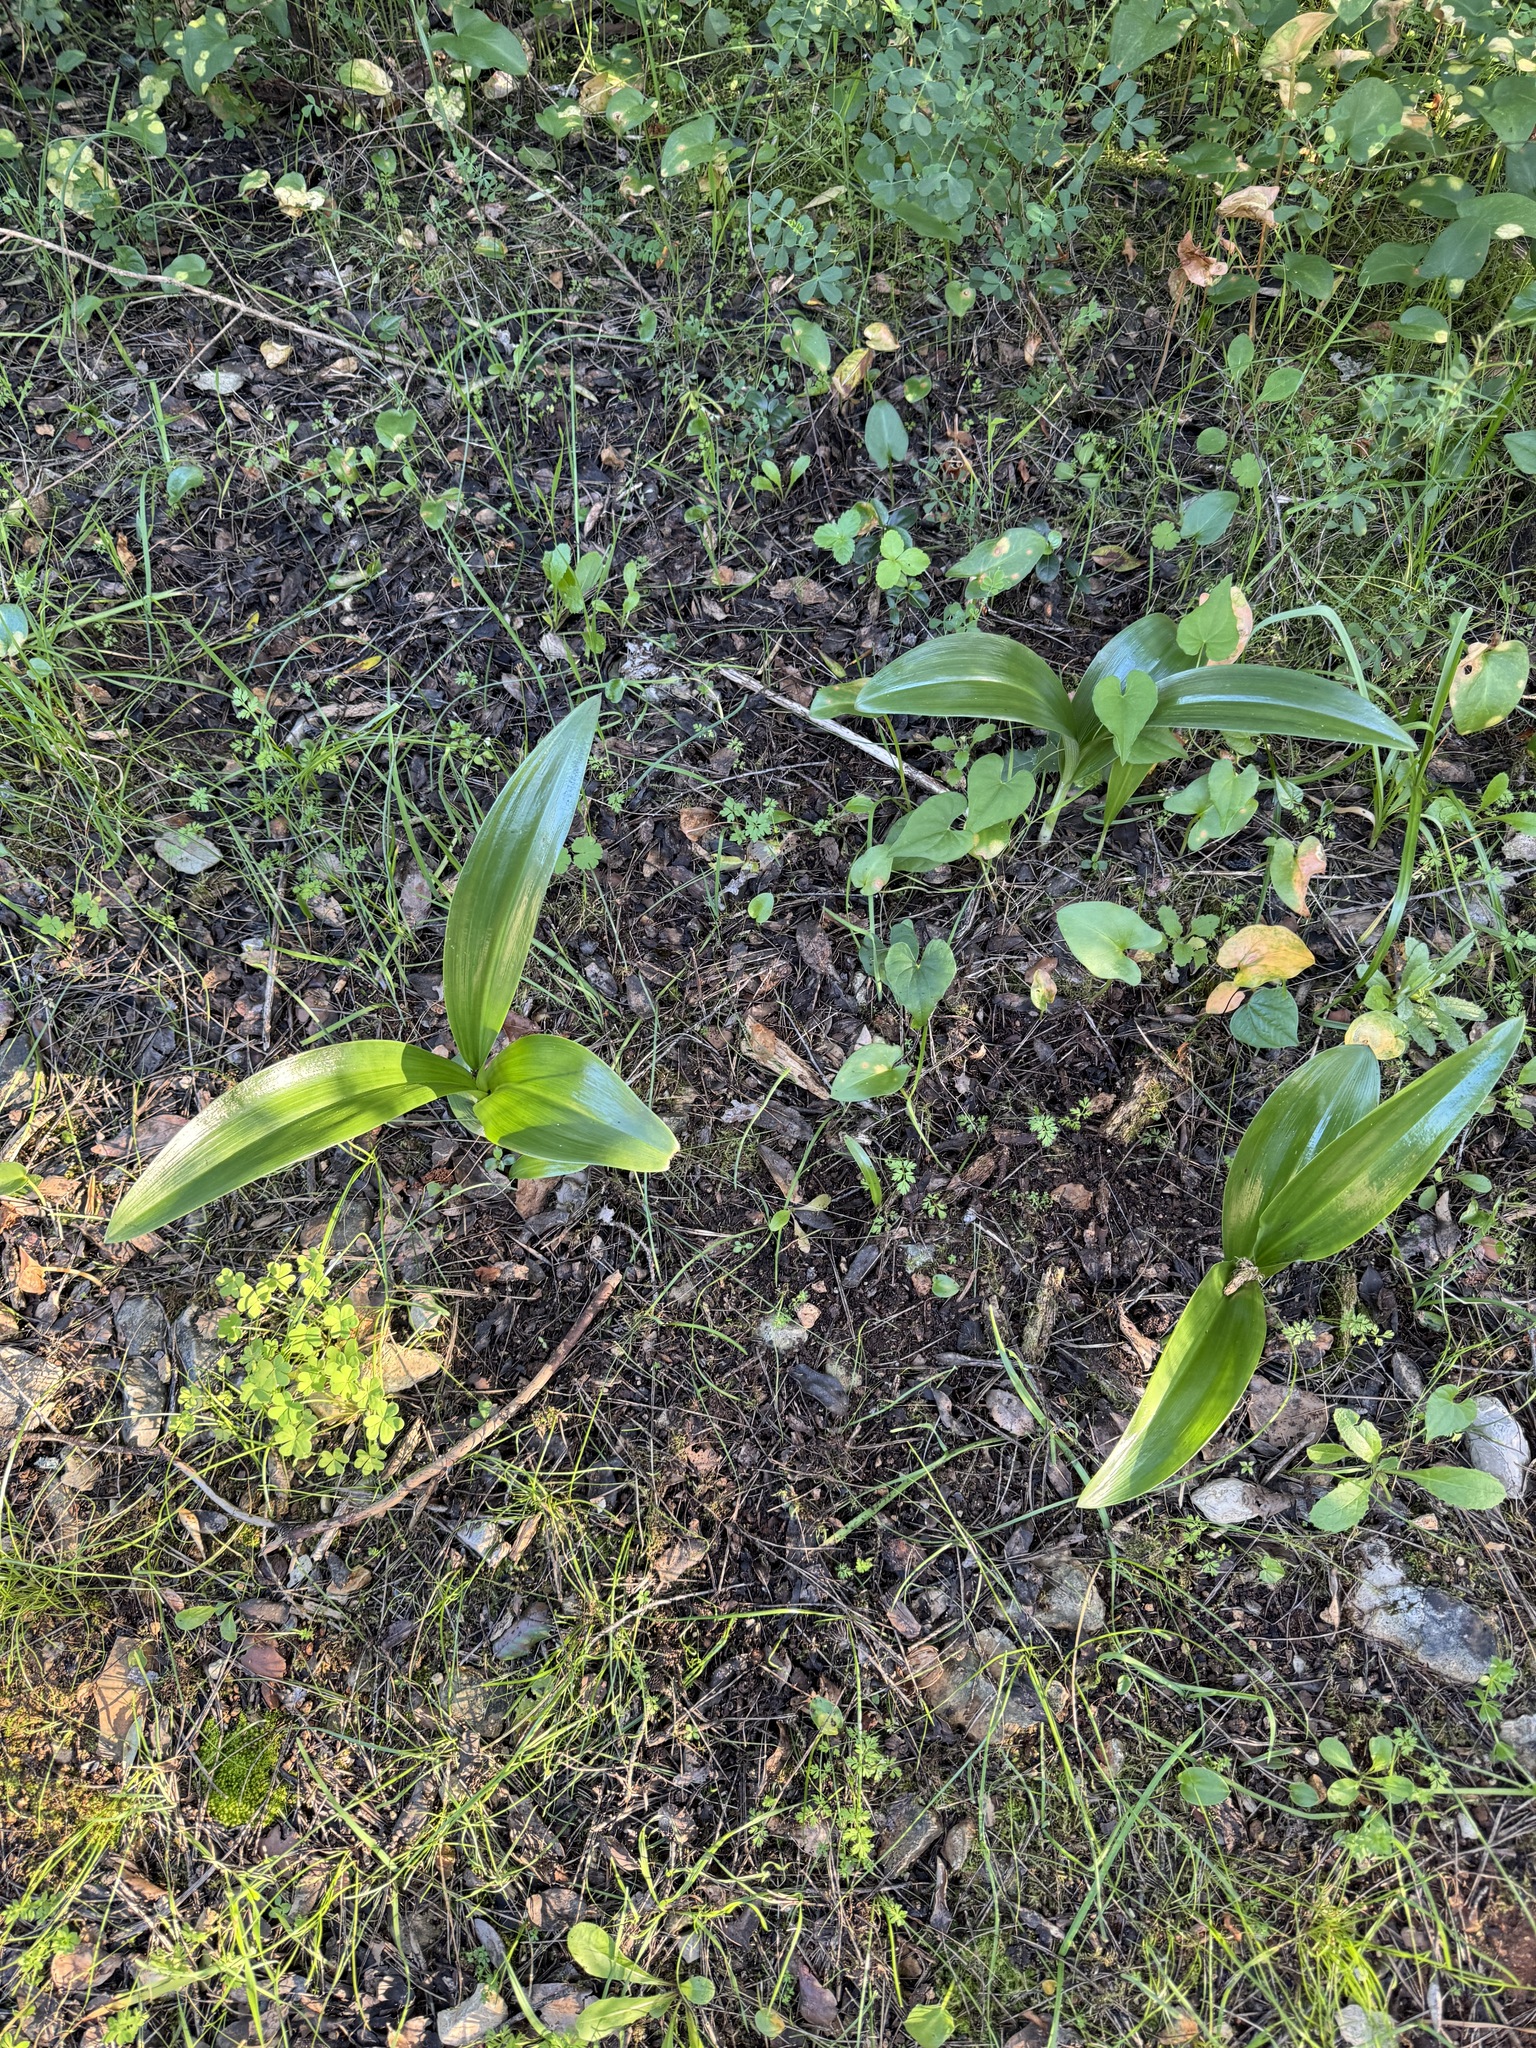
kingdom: Plantae
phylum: Tracheophyta
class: Liliopsida
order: Asparagales
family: Orchidaceae
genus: Himantoglossum
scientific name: Himantoglossum robertianum
